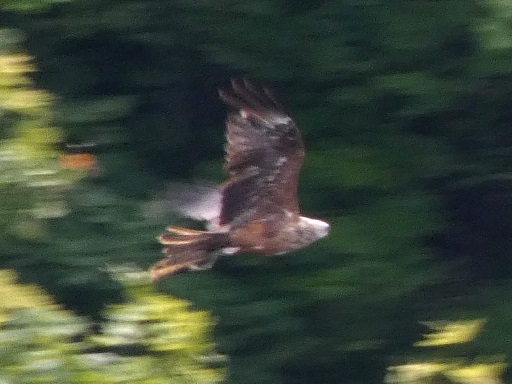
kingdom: Animalia
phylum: Chordata
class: Aves
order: Accipitriformes
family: Accipitridae
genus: Milvus
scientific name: Milvus migrans
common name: Black kite
